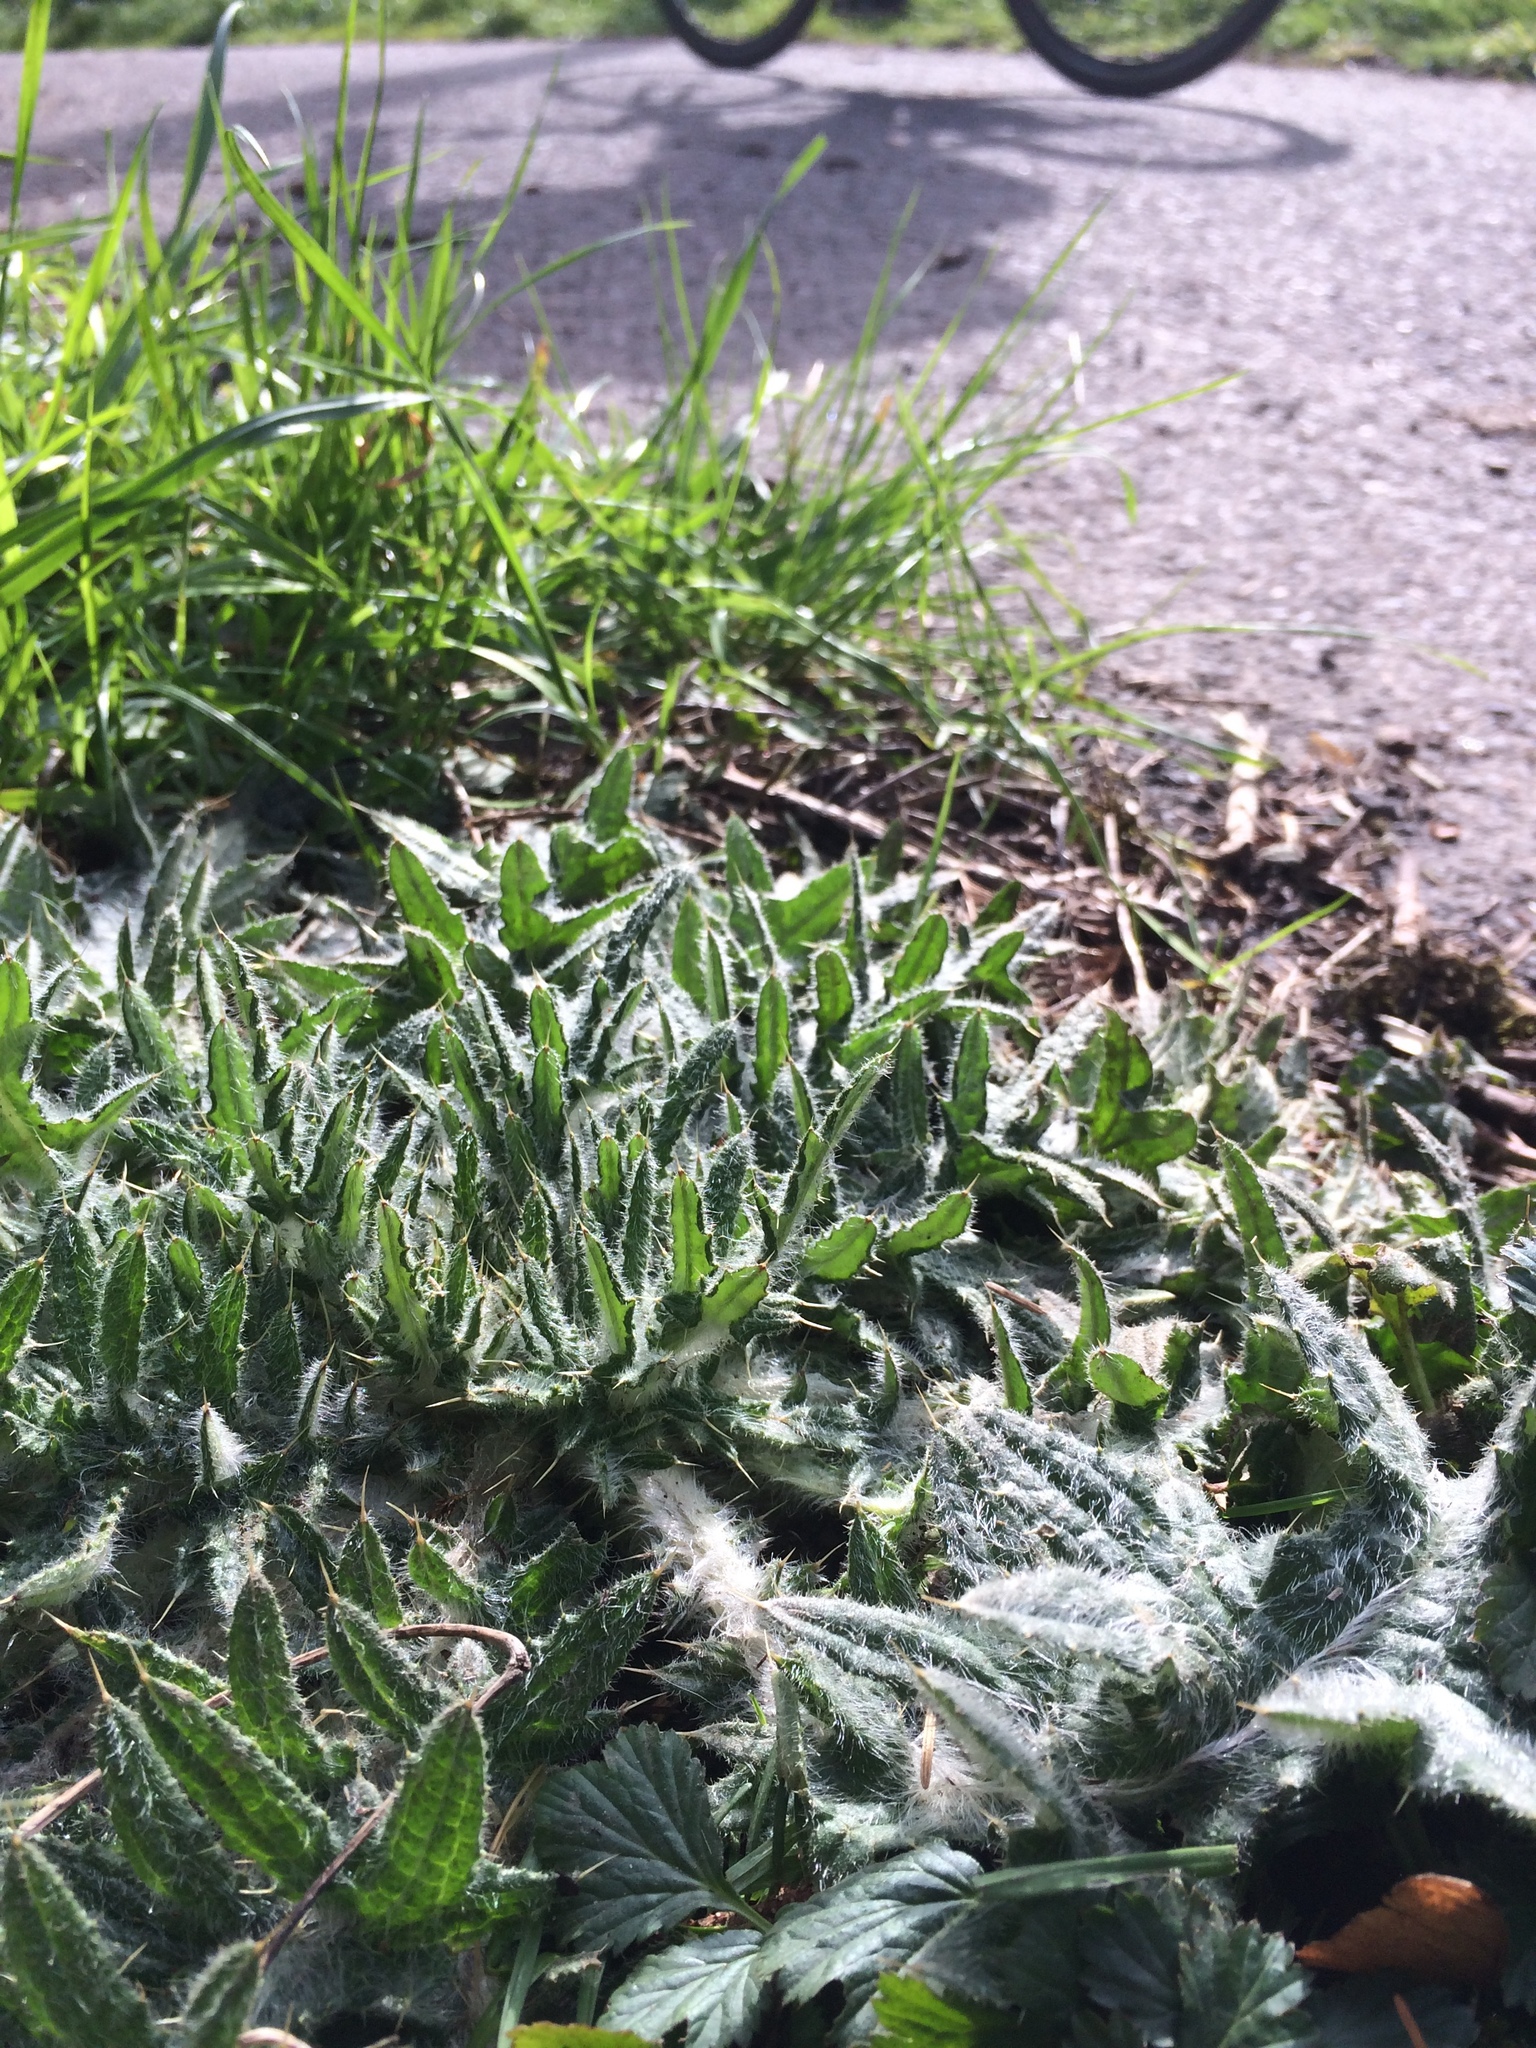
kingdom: Plantae
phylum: Tracheophyta
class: Magnoliopsida
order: Asterales
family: Asteraceae
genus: Cirsium
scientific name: Cirsium vulgare
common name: Bull thistle
